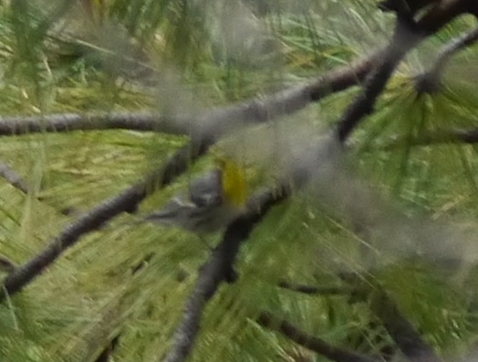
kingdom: Animalia
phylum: Chordata
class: Aves
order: Passeriformes
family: Parulidae
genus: Setophaga
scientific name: Setophaga graciae
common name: Grace's warbler
